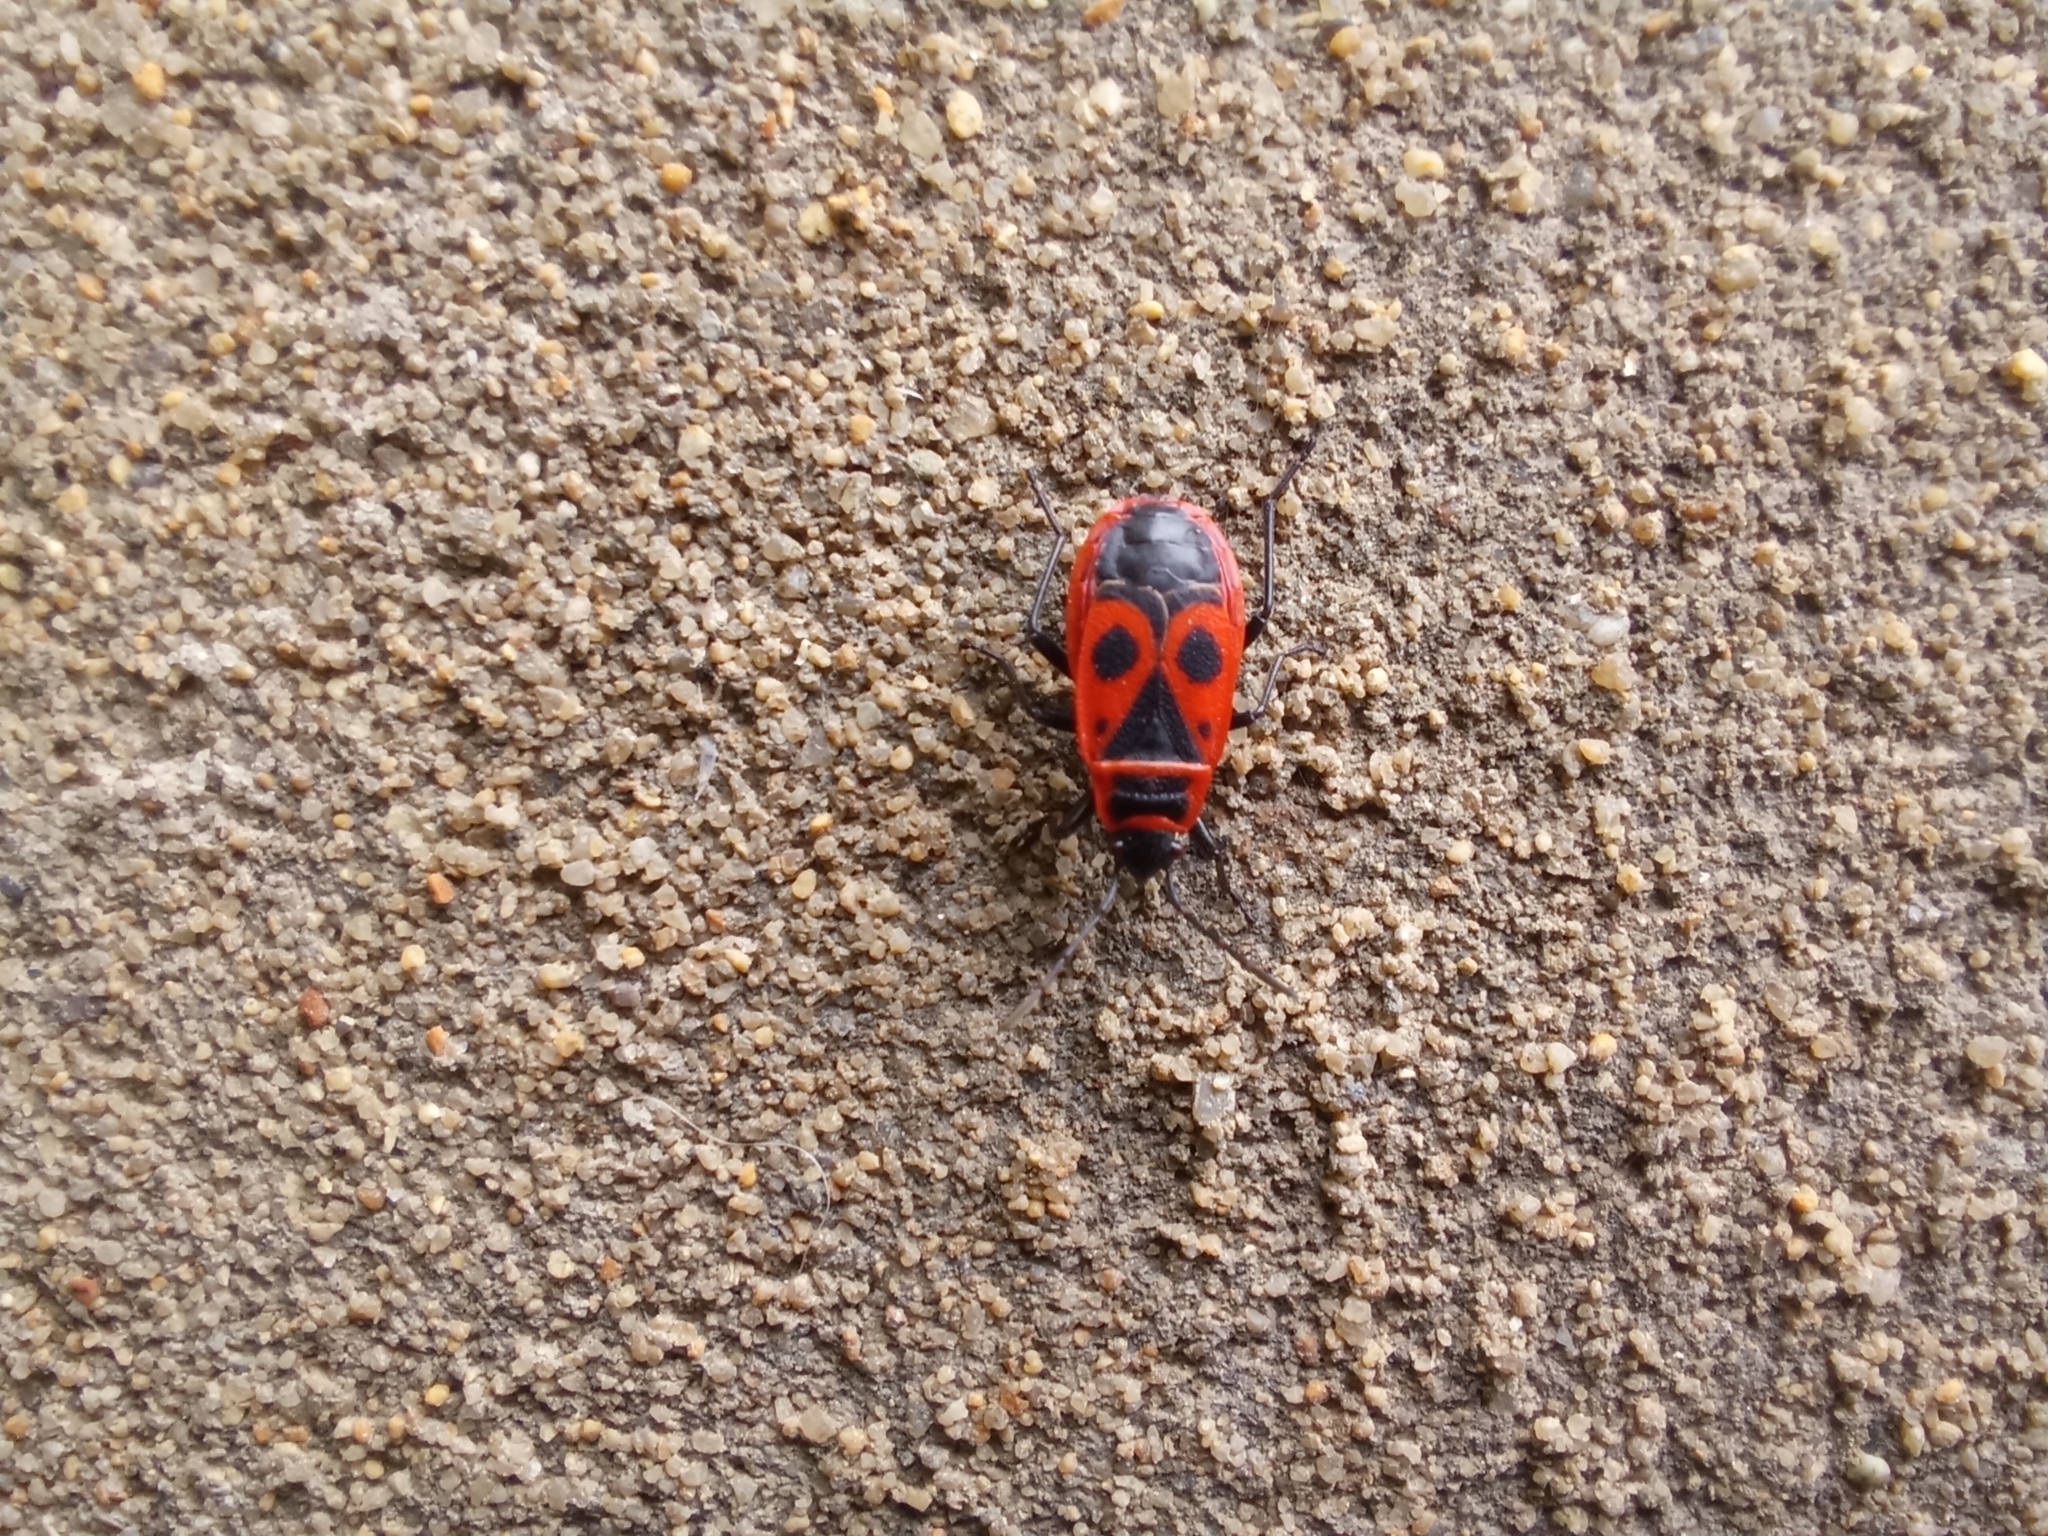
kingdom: Animalia
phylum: Arthropoda
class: Insecta
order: Hemiptera
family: Pyrrhocoridae
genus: Pyrrhocoris
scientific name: Pyrrhocoris apterus
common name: Firebug
